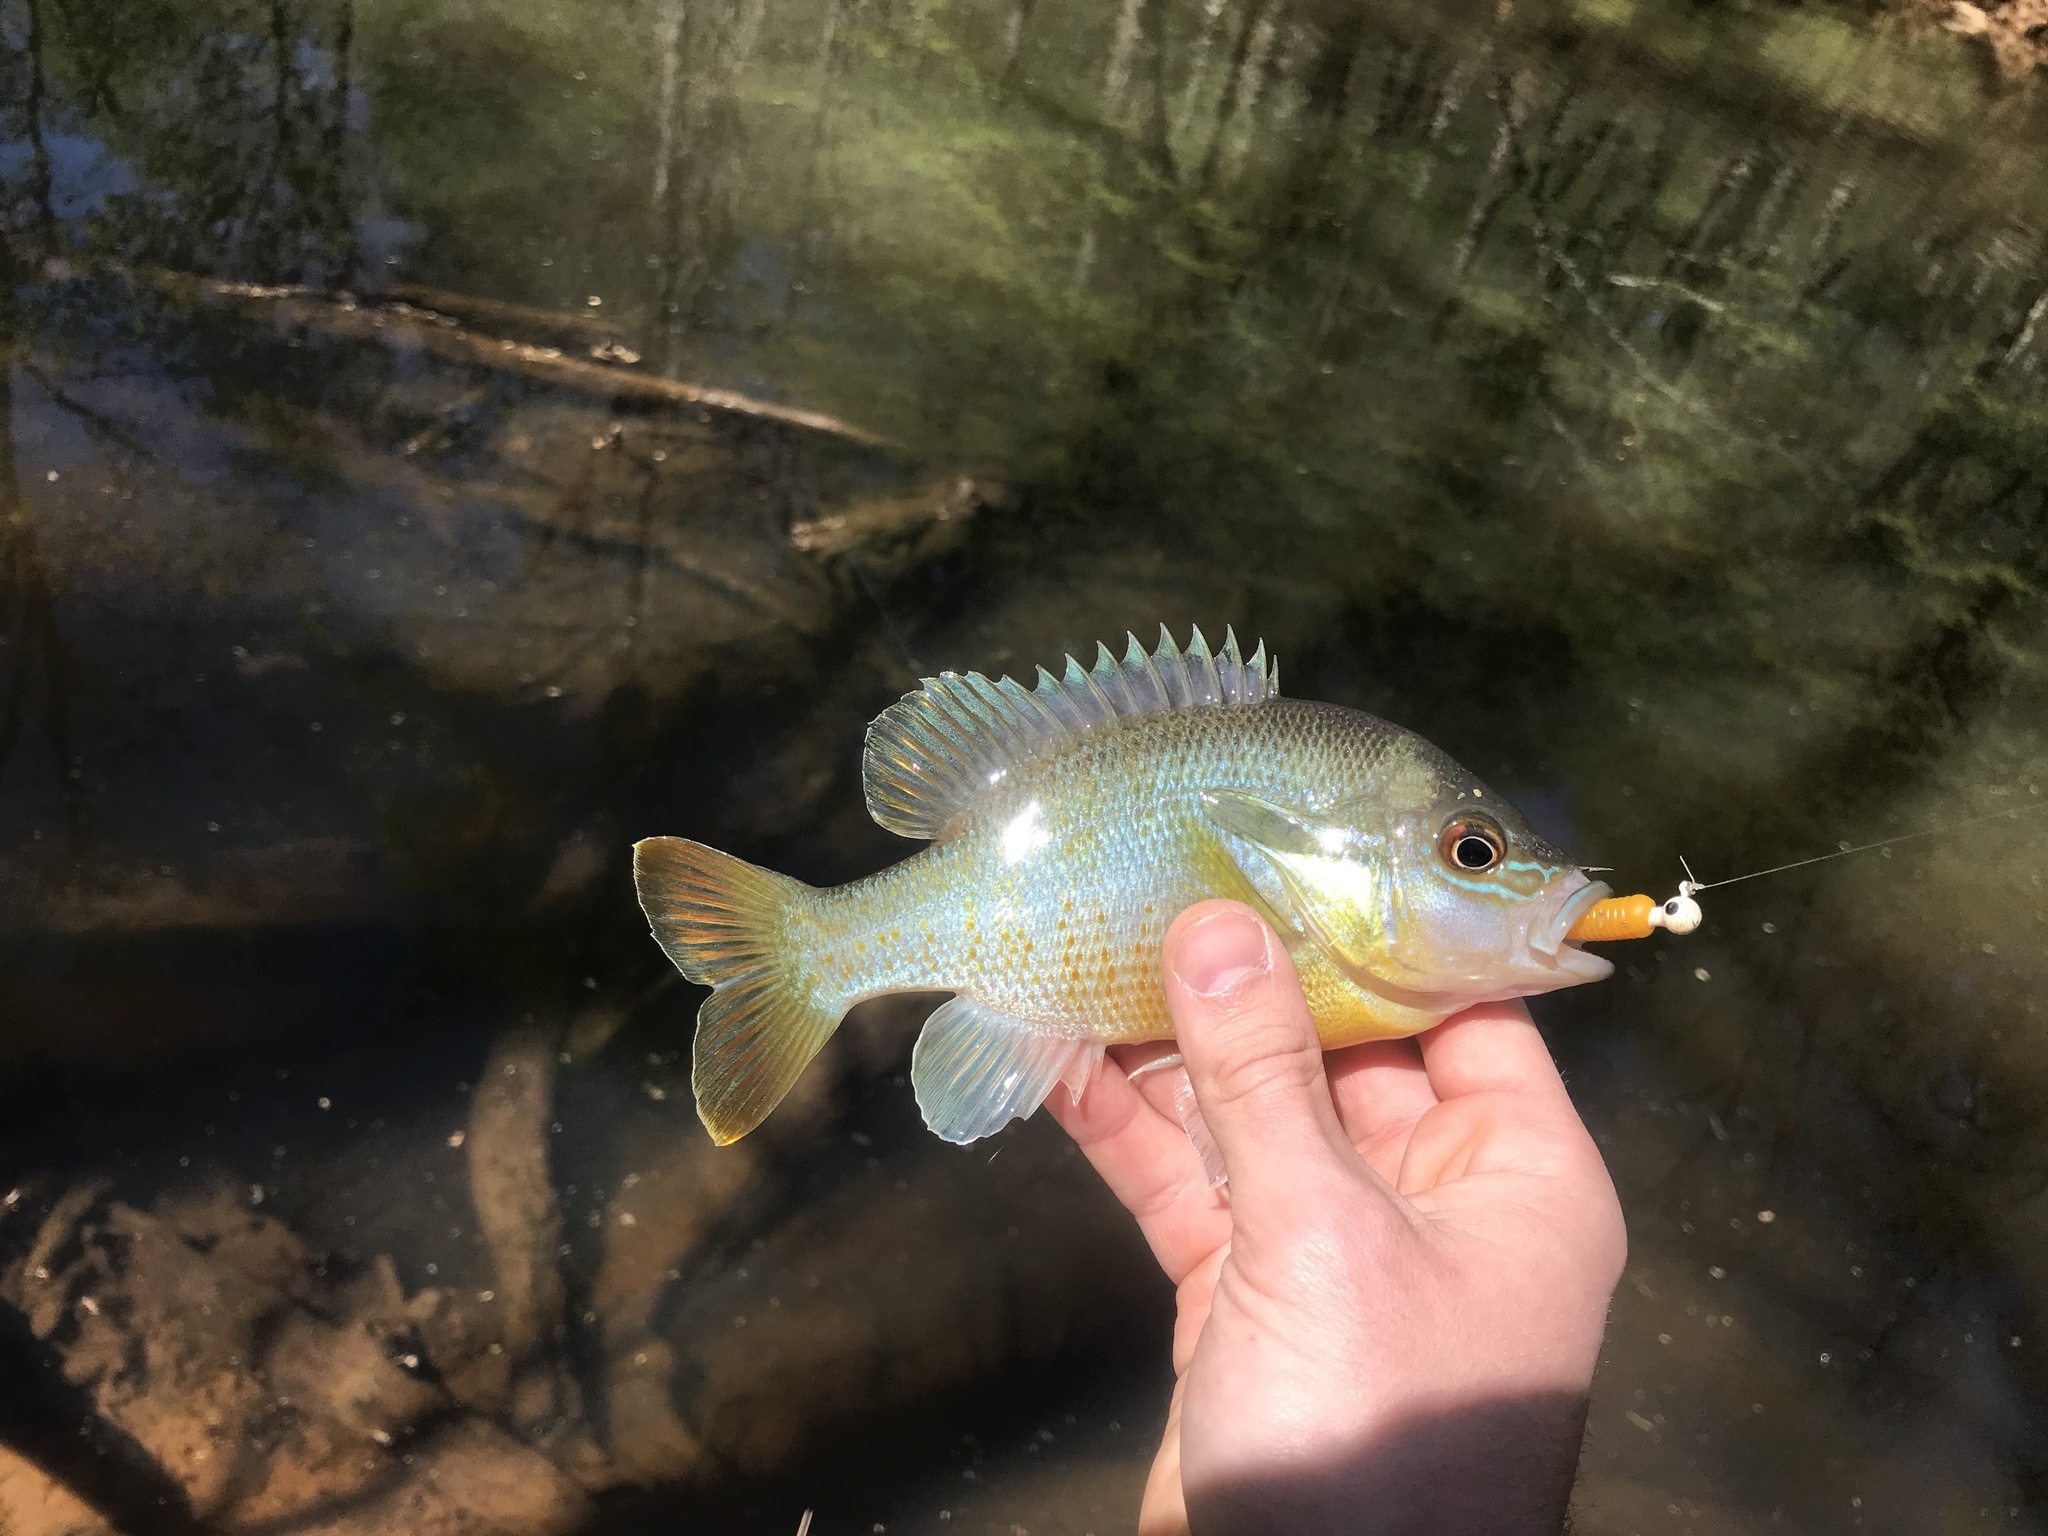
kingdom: Animalia
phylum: Chordata
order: Perciformes
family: Centrarchidae
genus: Lepomis
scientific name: Lepomis auritus
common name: Redbreast sunfish
